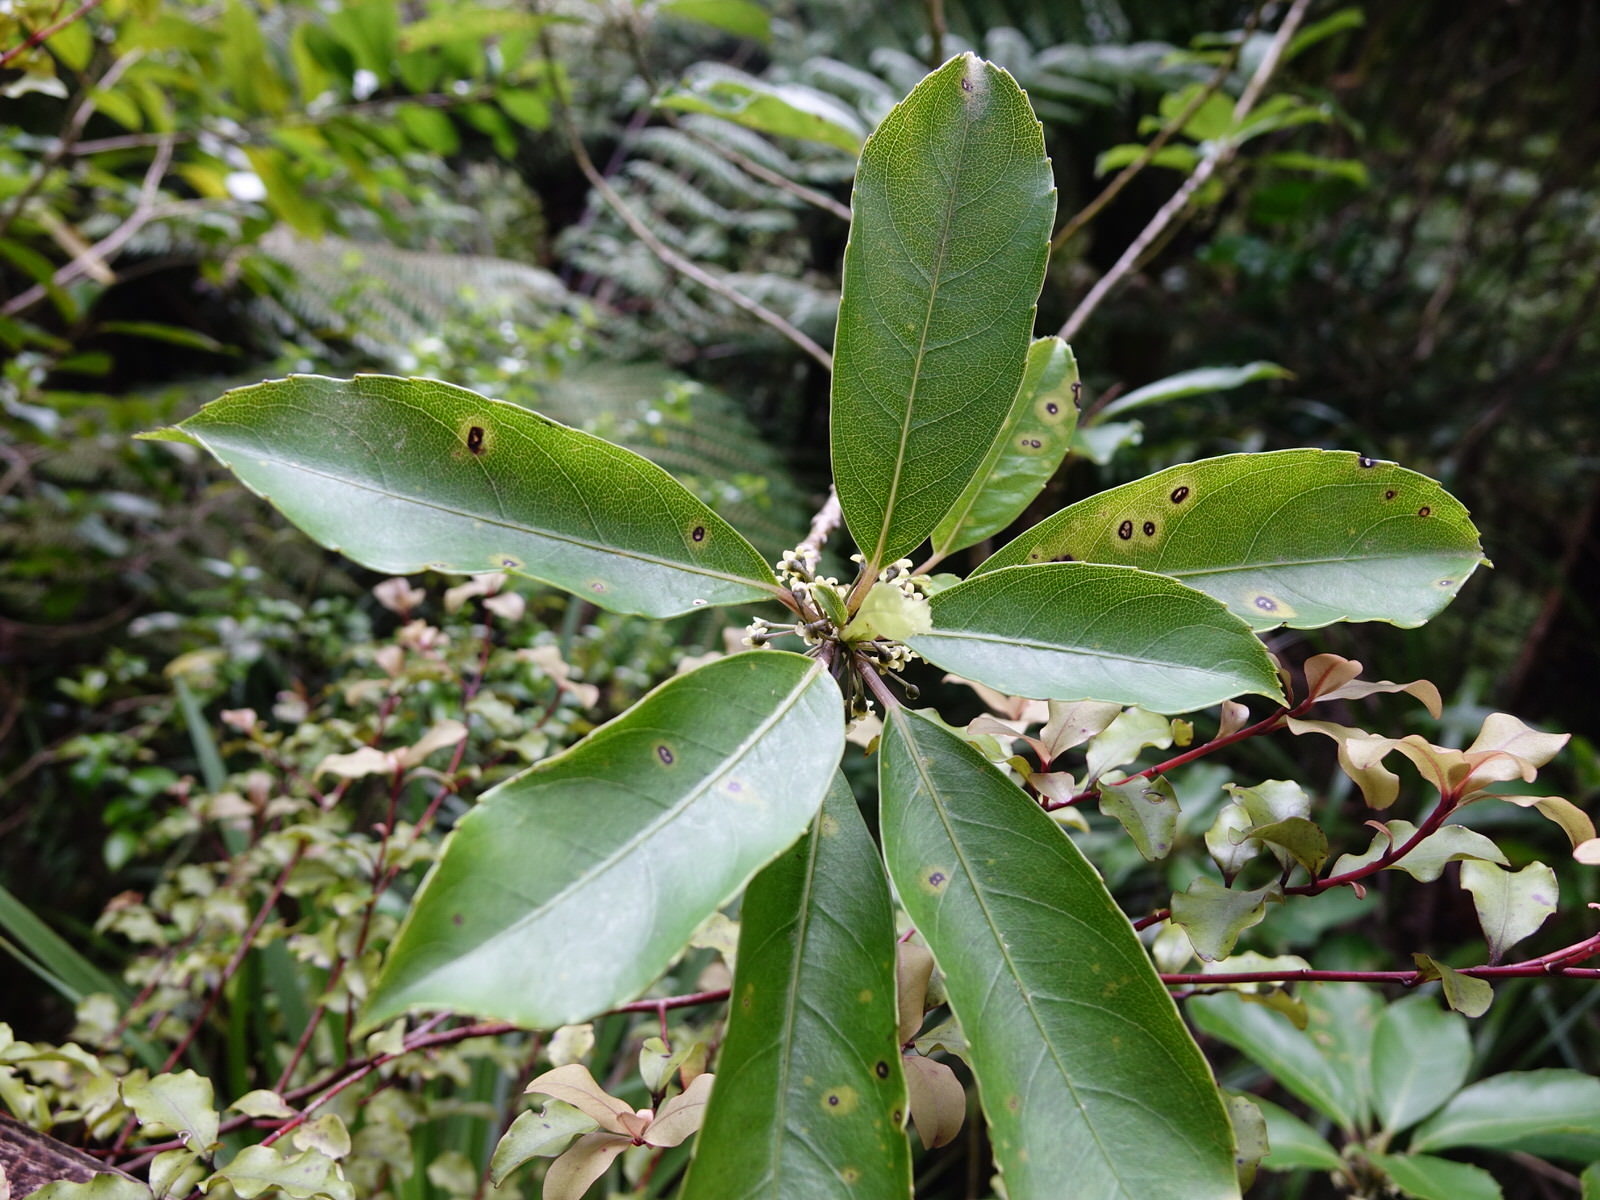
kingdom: Plantae
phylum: Tracheophyta
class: Magnoliopsida
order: Malpighiales
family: Violaceae
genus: Melicytus
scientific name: Melicytus macrophyllus
